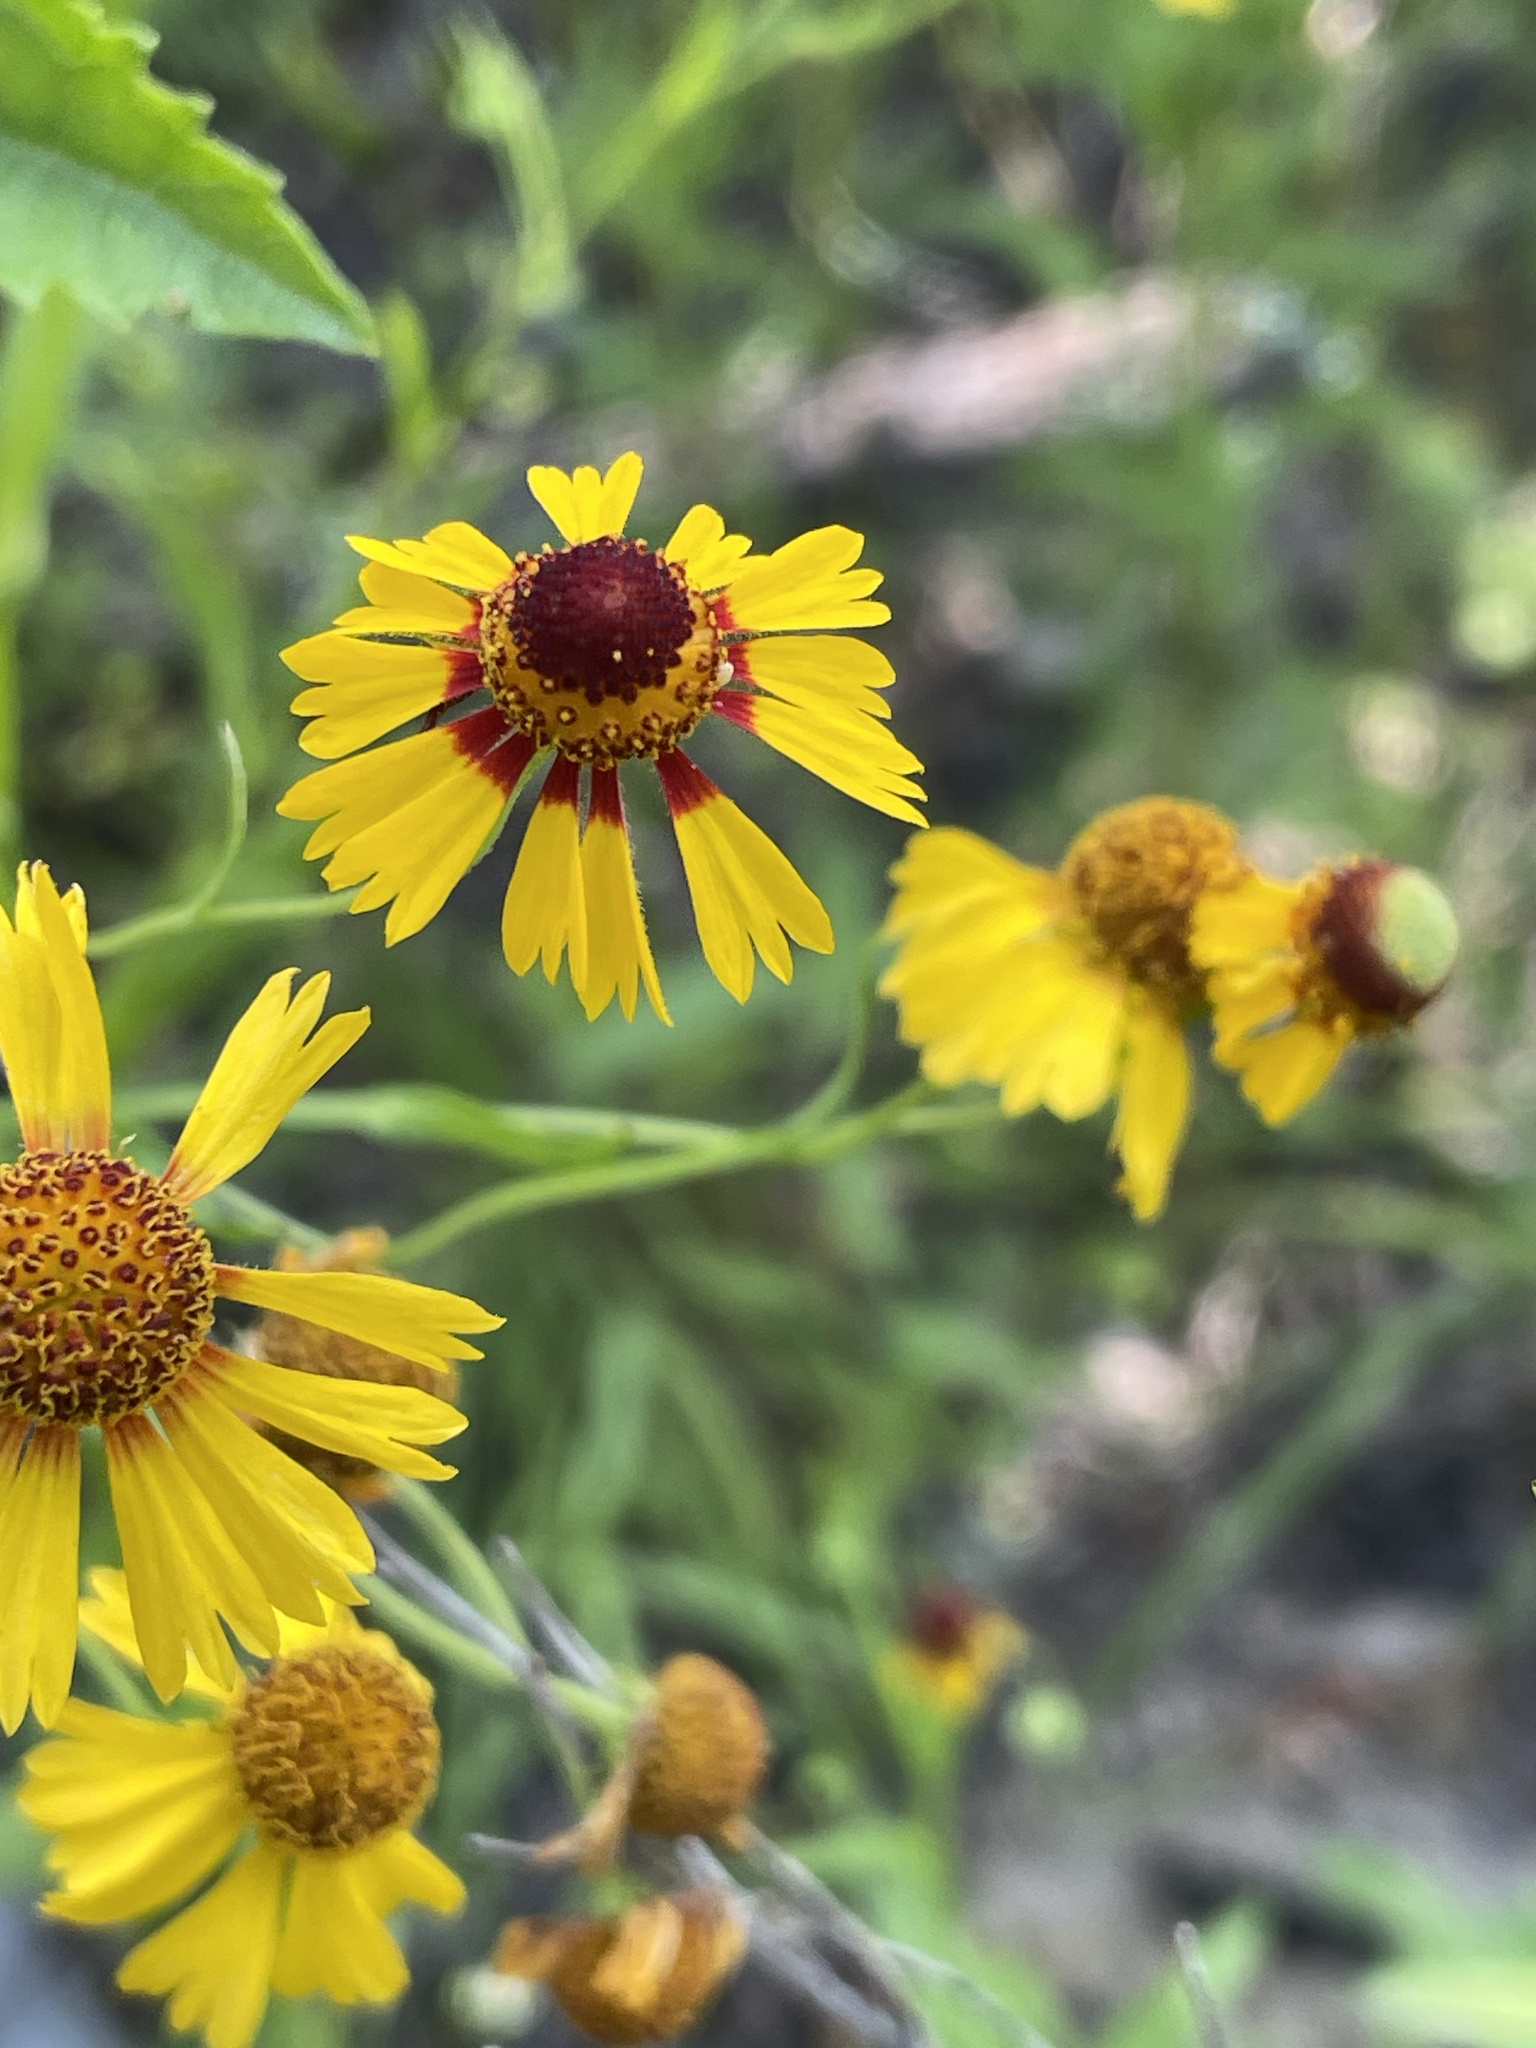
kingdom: Plantae
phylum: Tracheophyta
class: Magnoliopsida
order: Asterales
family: Asteraceae
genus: Helenium
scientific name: Helenium elegans
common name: Pretty sneezeweed
